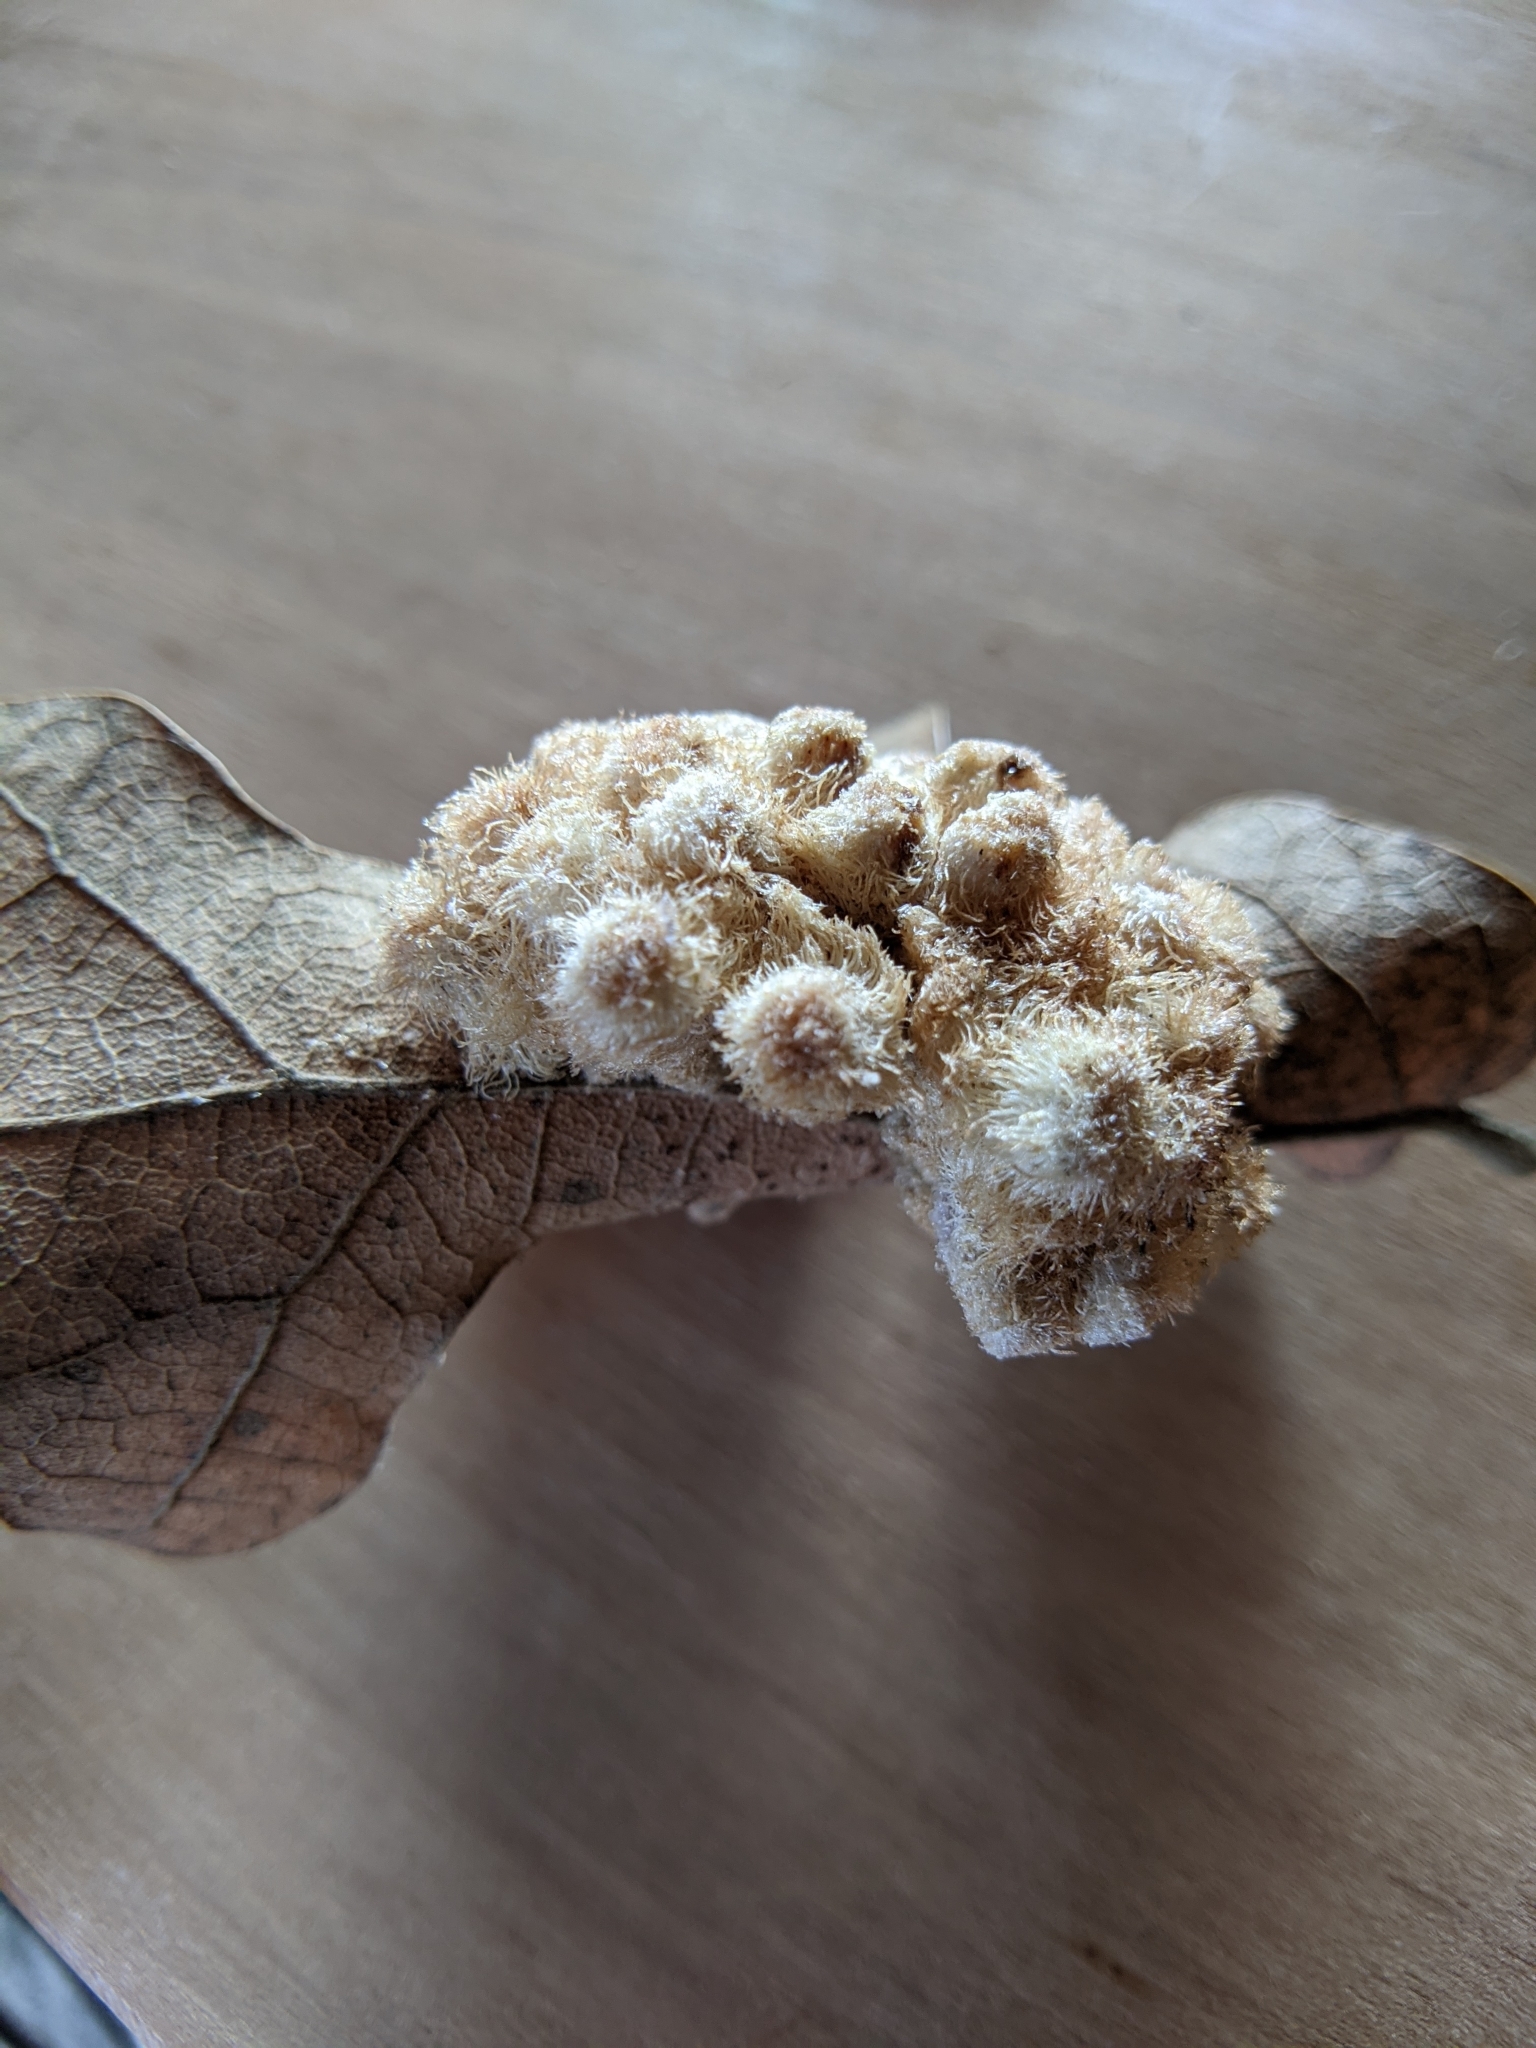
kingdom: Animalia
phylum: Arthropoda
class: Insecta
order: Hymenoptera
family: Cynipidae
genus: Andricus
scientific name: Andricus
